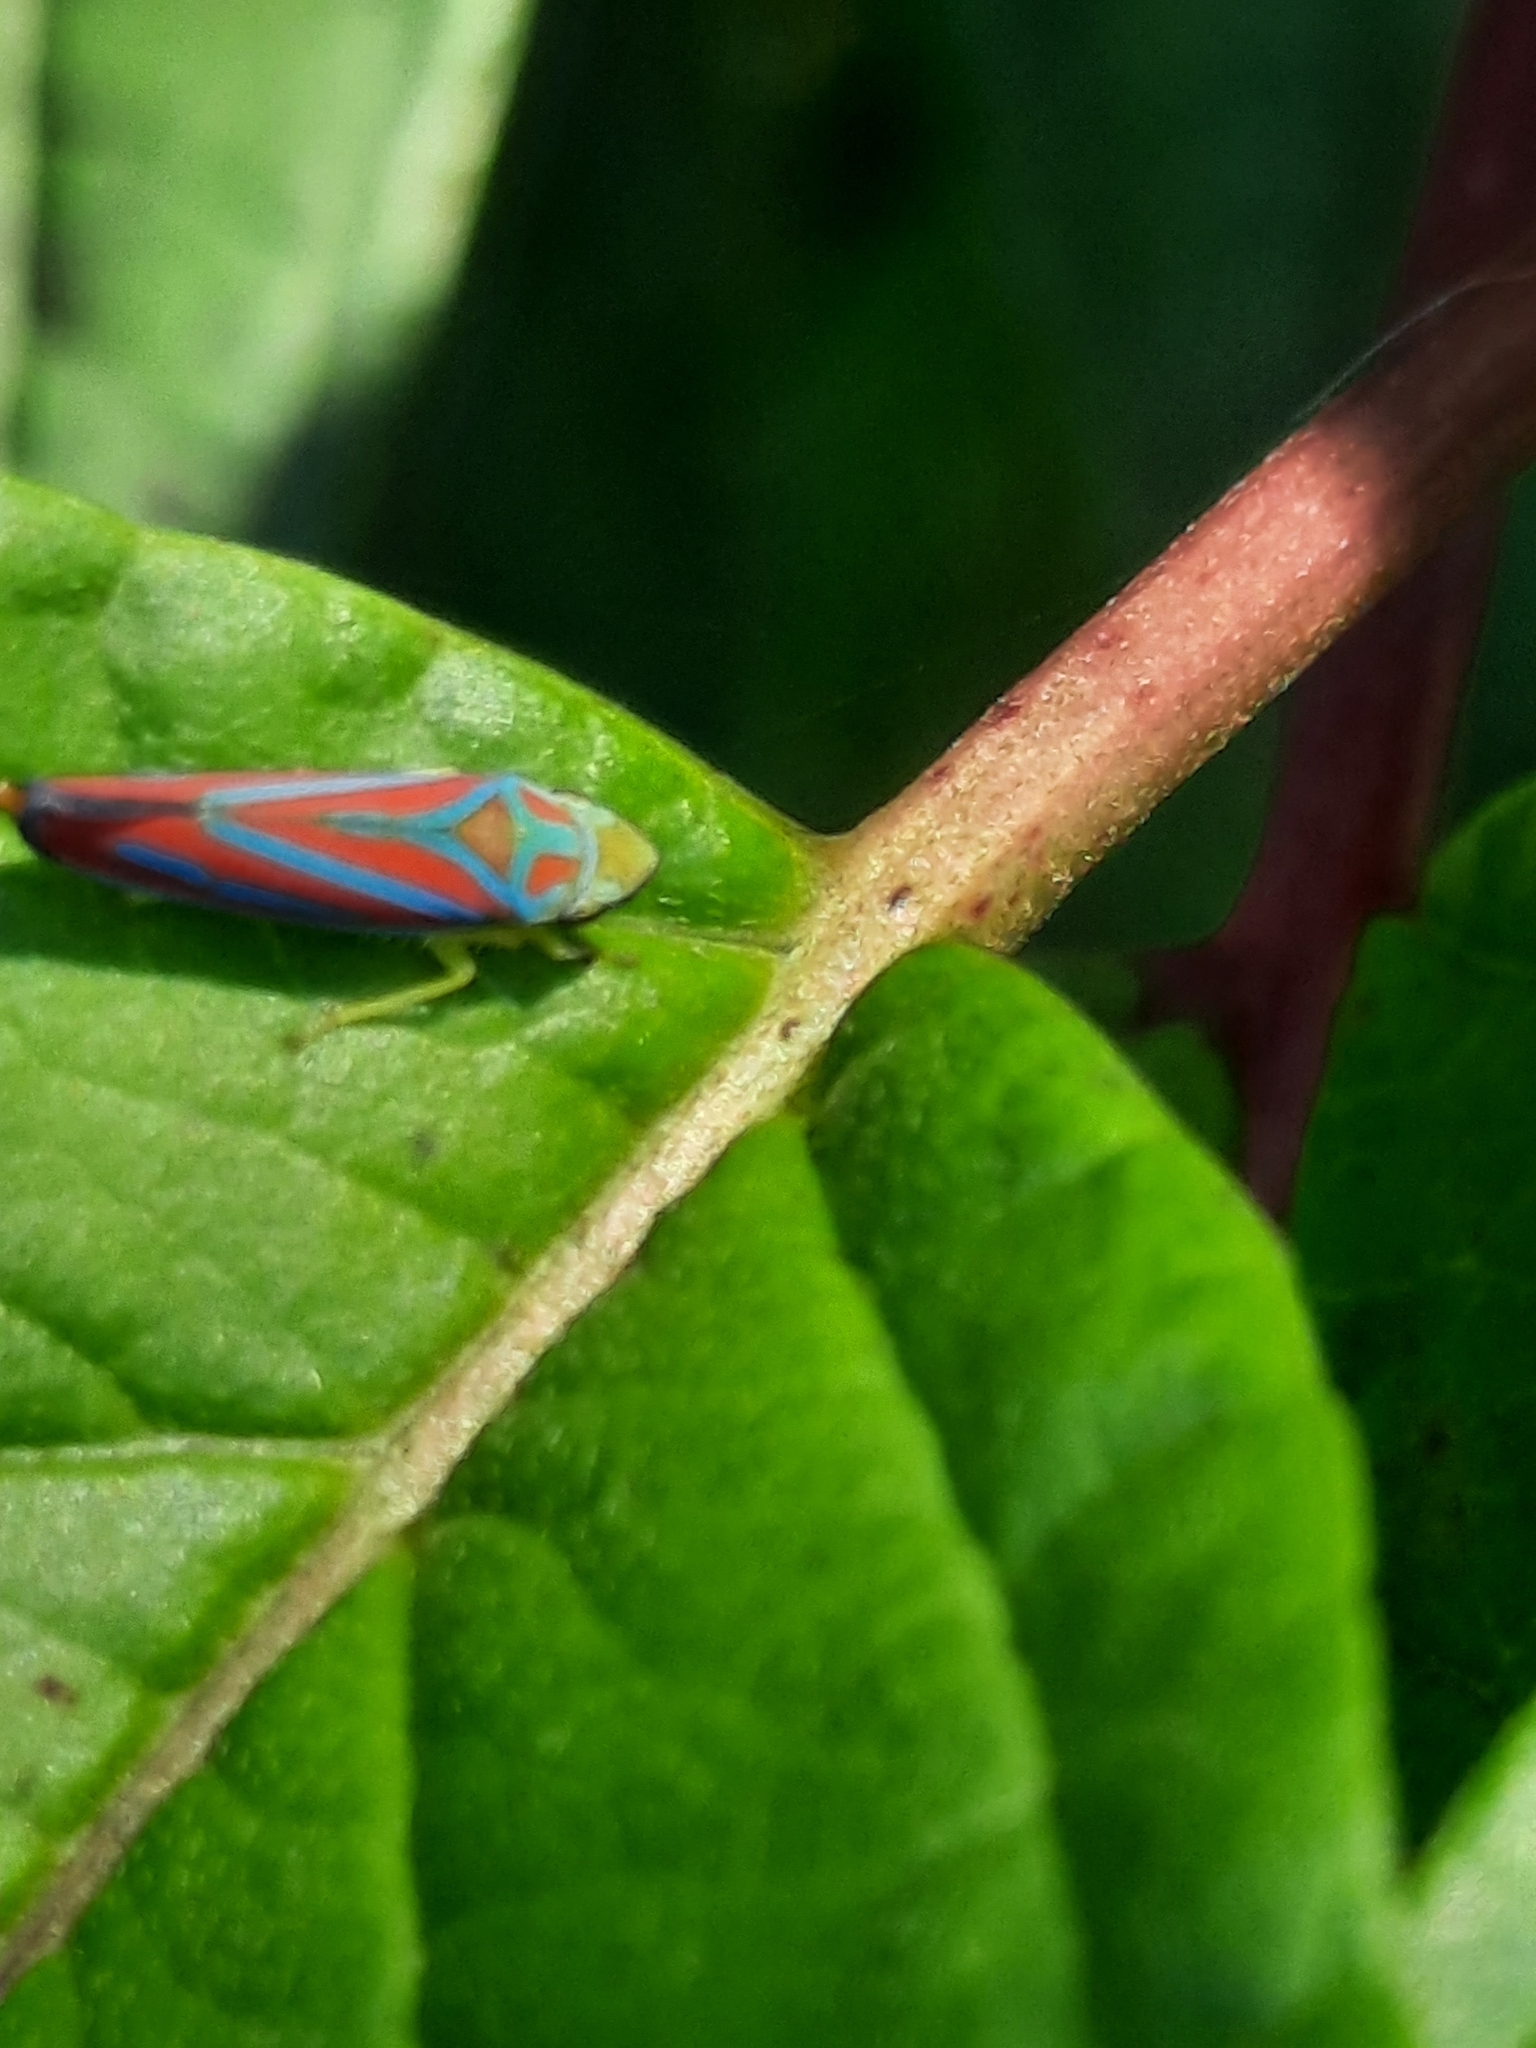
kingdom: Animalia
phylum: Arthropoda
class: Insecta
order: Hemiptera
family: Cicadellidae
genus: Graphocephala
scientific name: Graphocephala coccinea
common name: Candy-striped leafhopper
